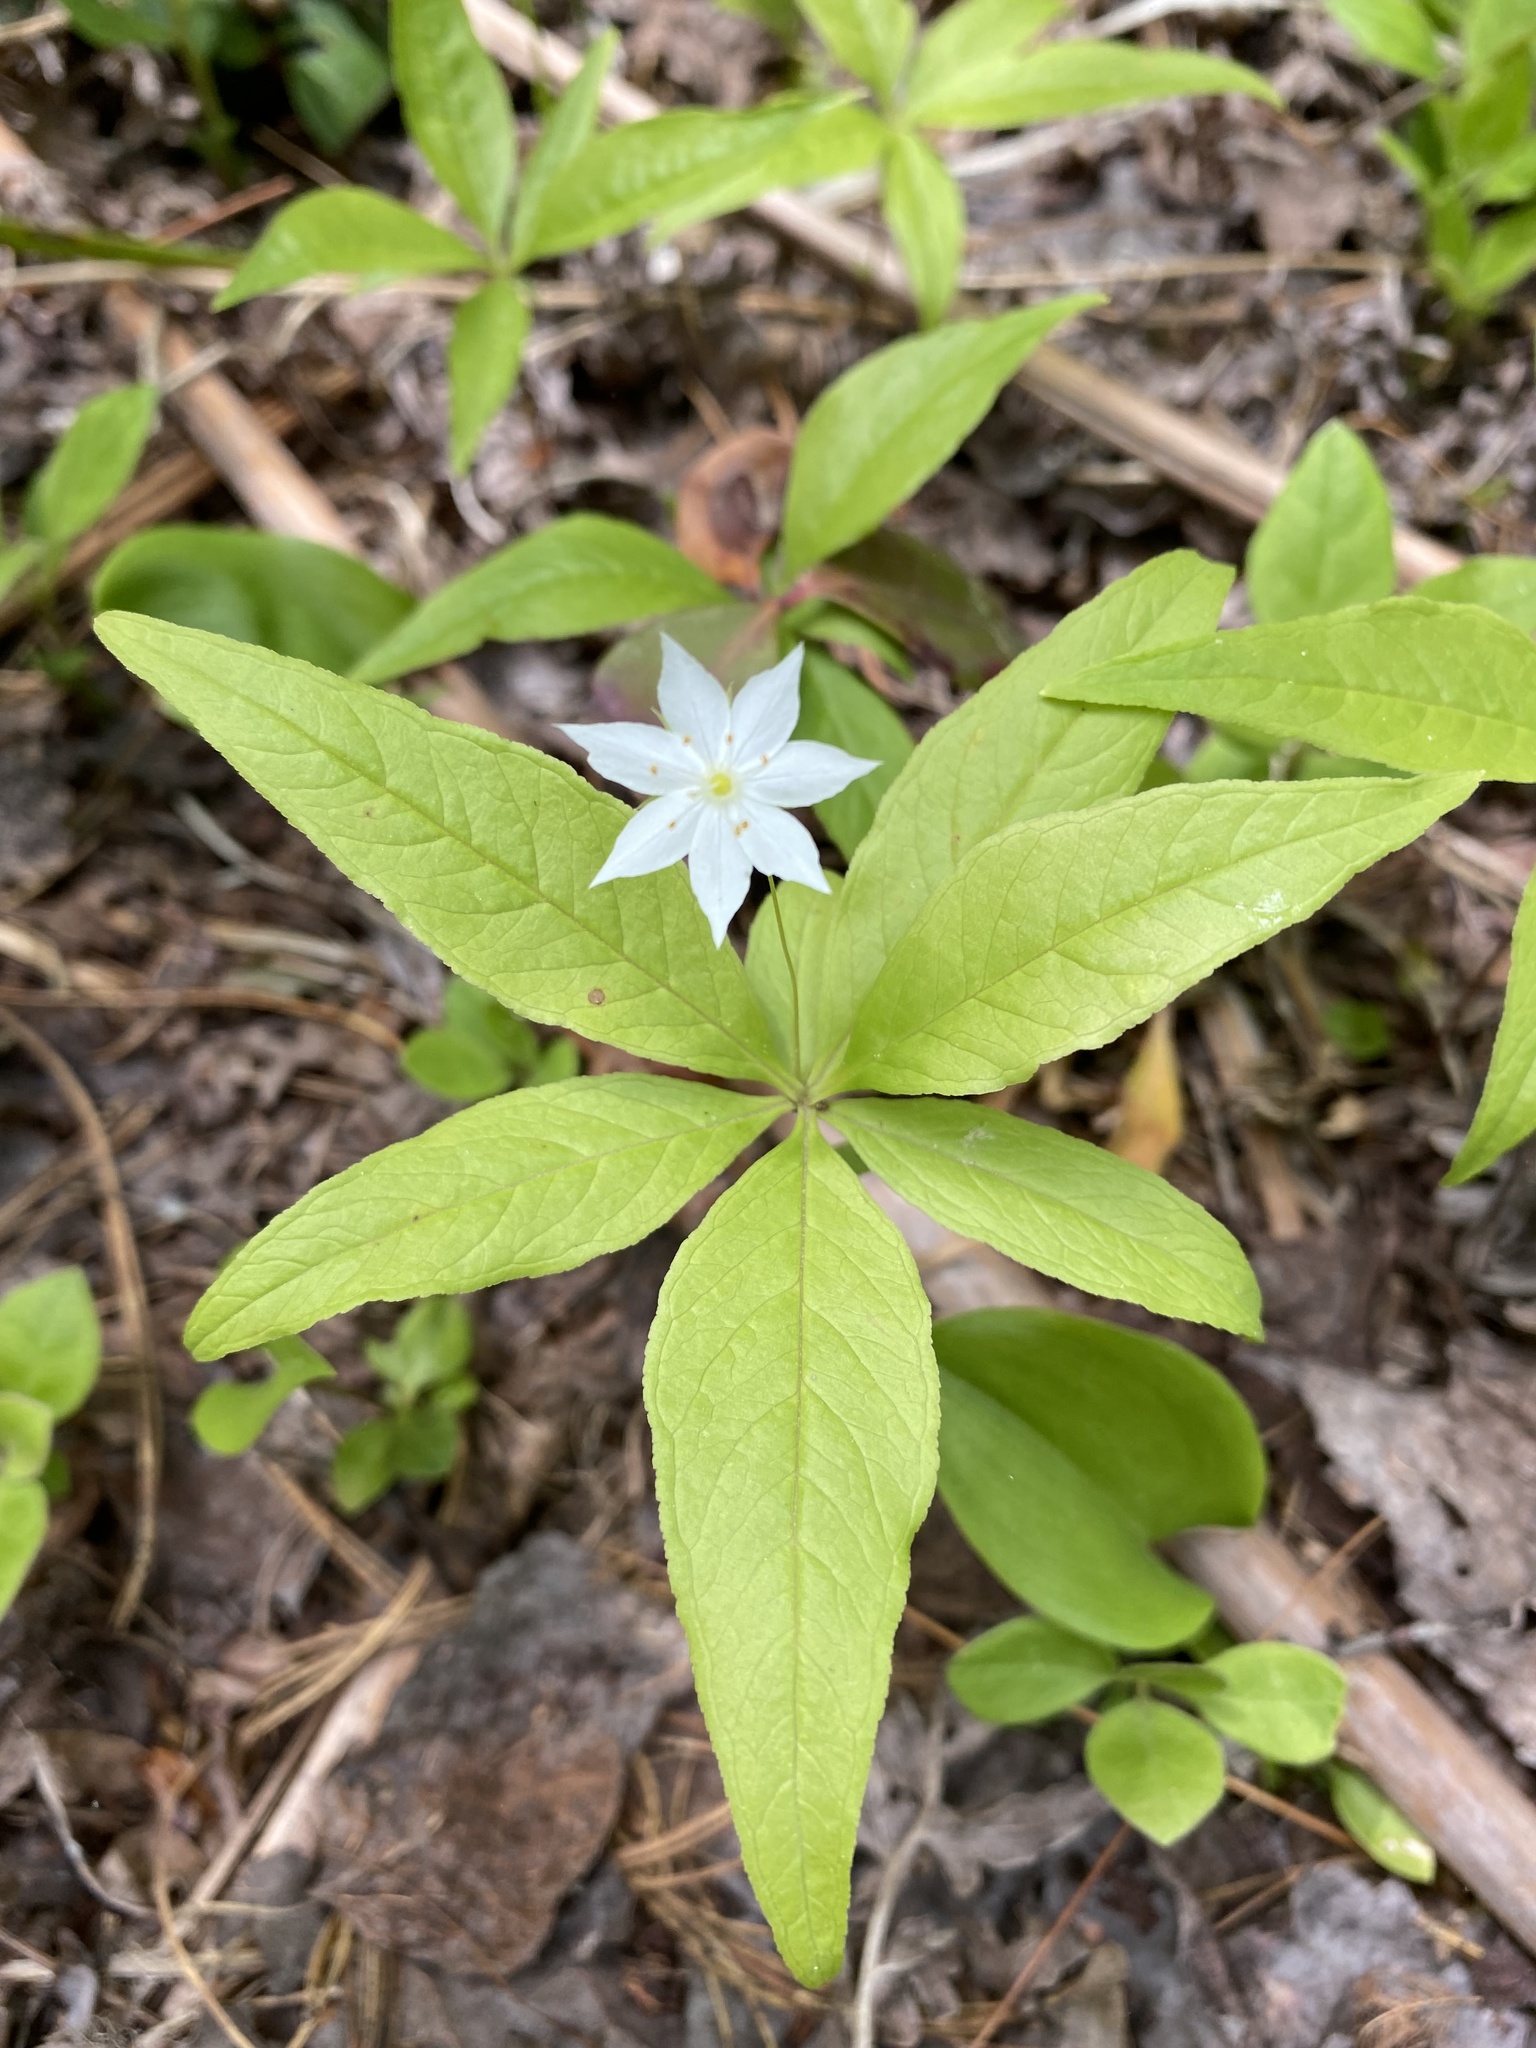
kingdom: Plantae
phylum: Tracheophyta
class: Magnoliopsida
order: Ericales
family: Primulaceae
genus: Lysimachia
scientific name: Lysimachia borealis
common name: American starflower
